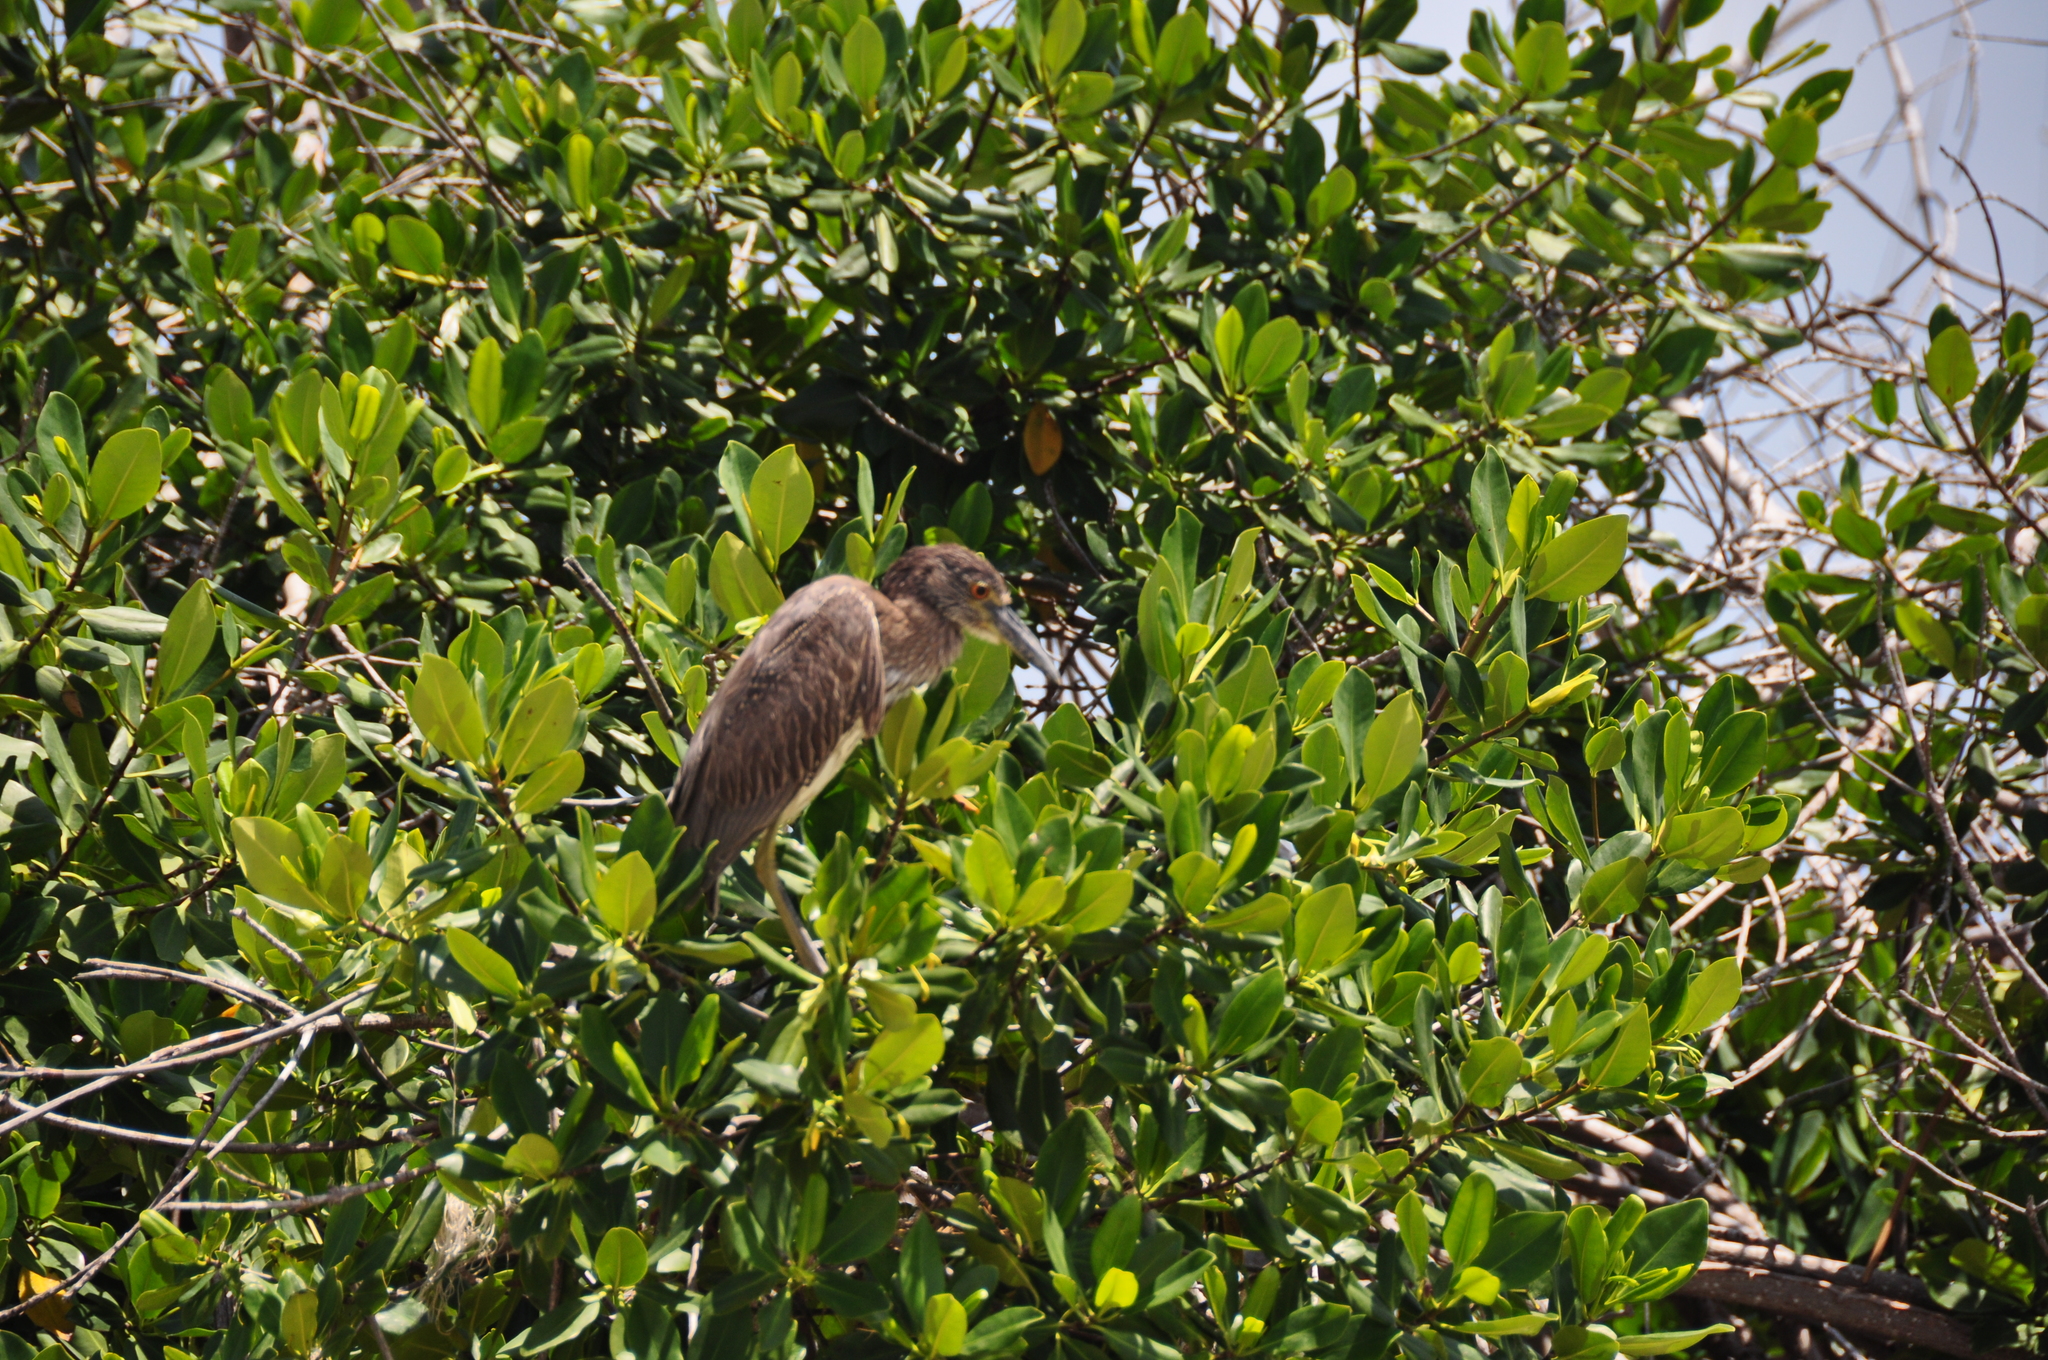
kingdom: Animalia
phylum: Chordata
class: Aves
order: Pelecaniformes
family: Ardeidae
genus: Nyctanassa
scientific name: Nyctanassa violacea
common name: Yellow-crowned night heron
